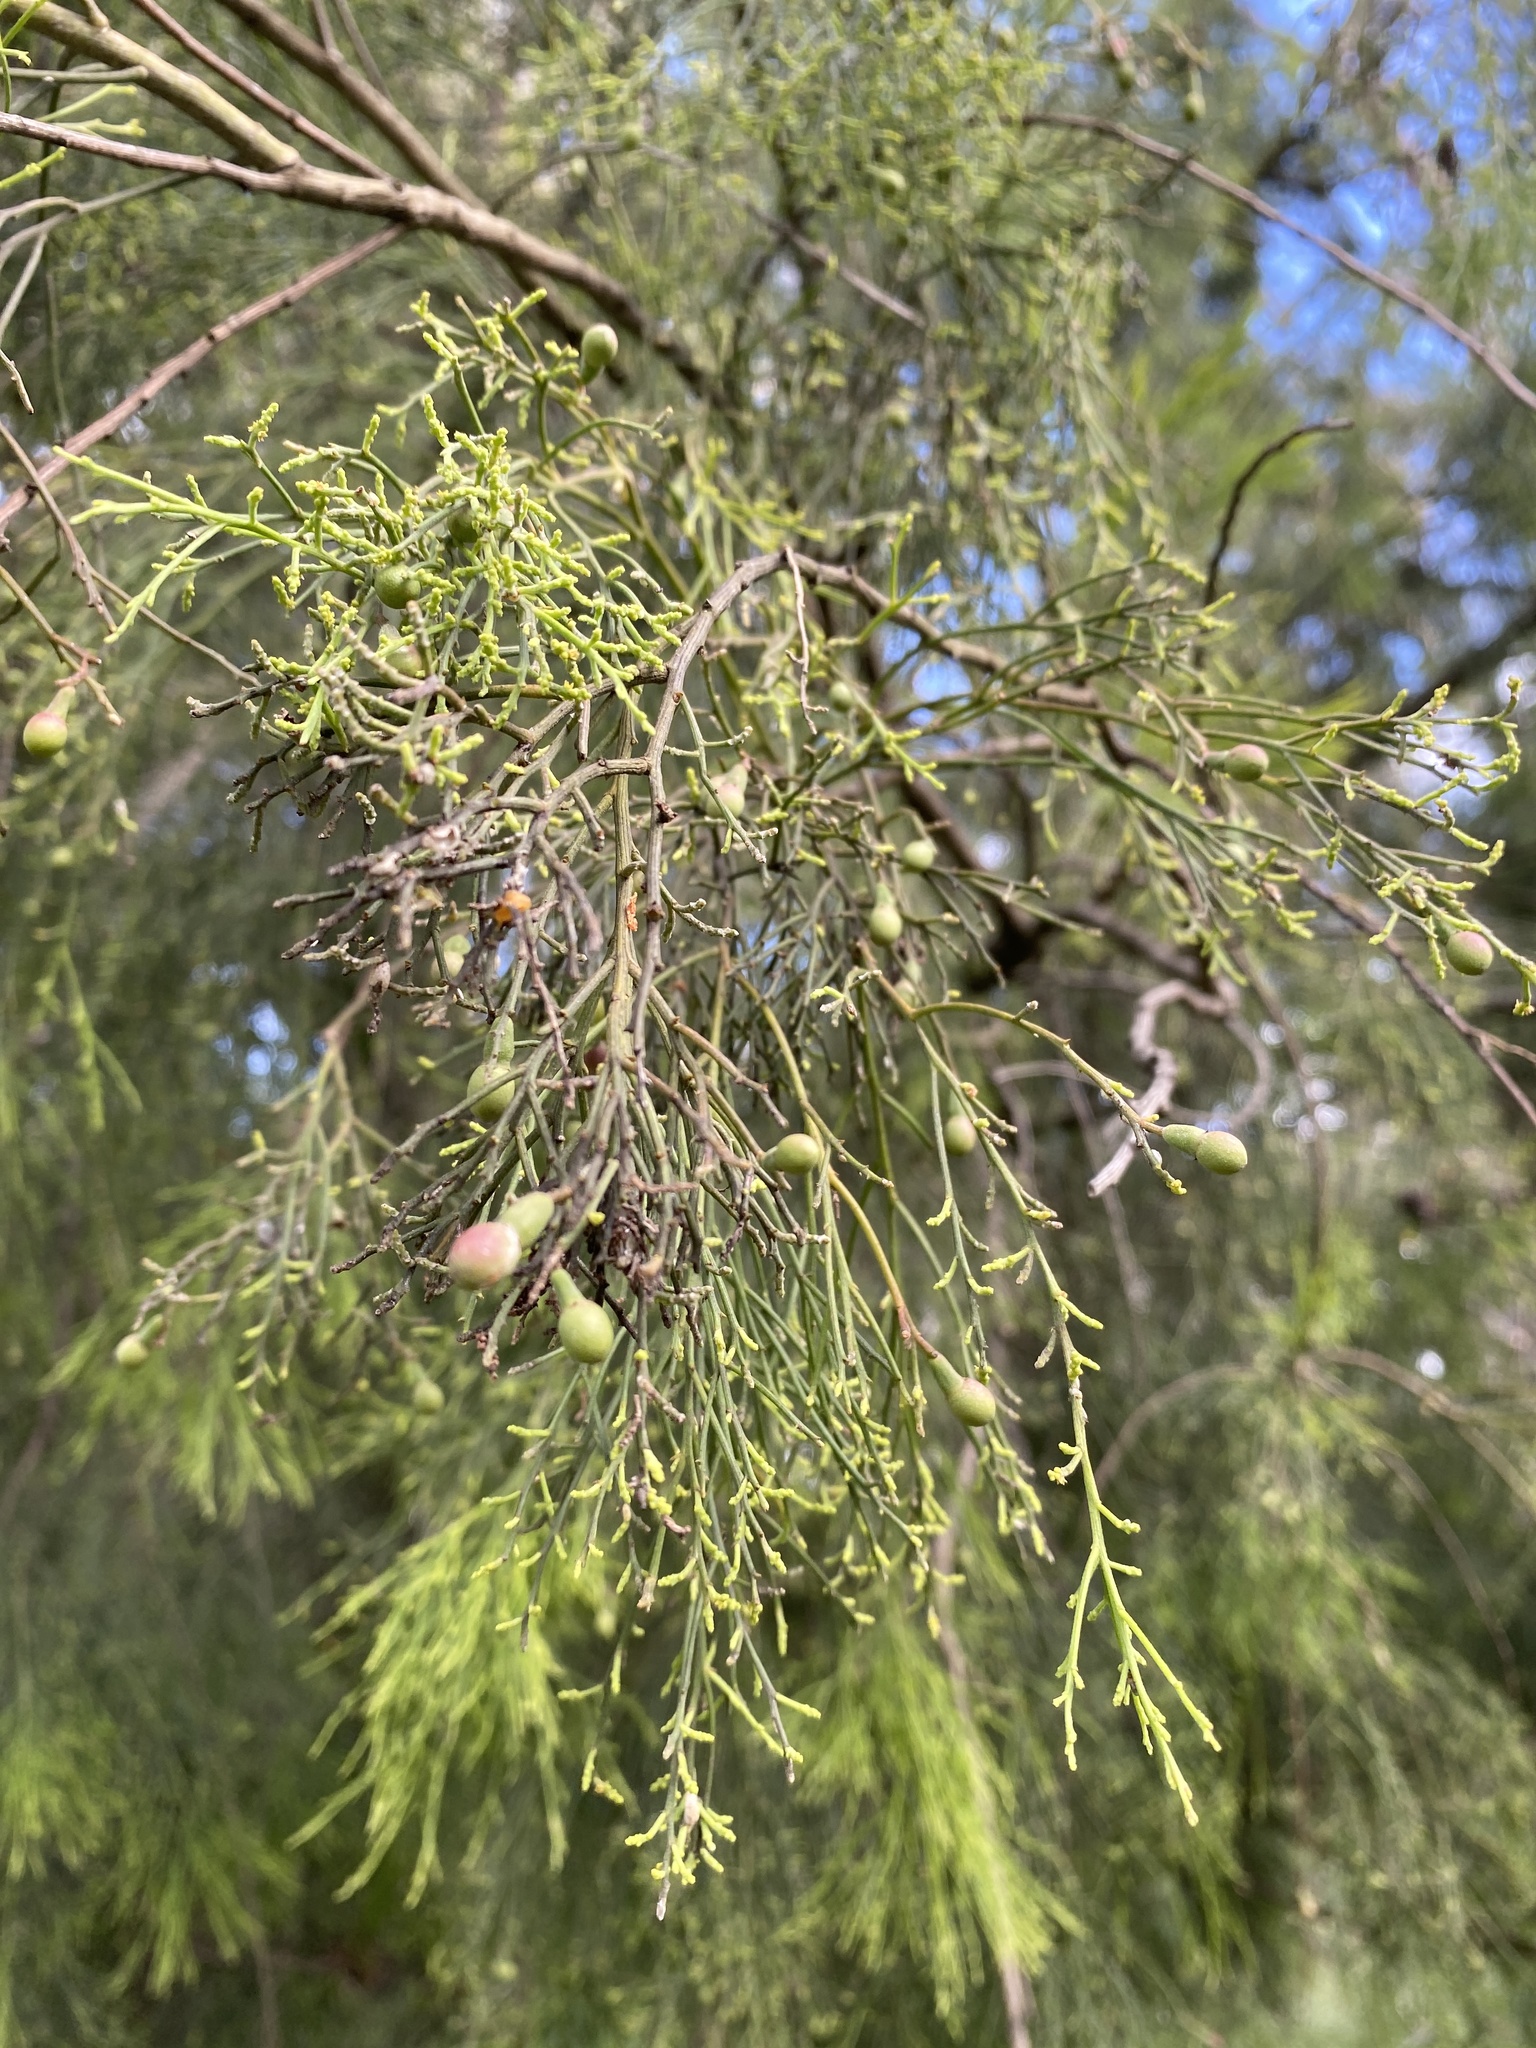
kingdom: Plantae
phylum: Tracheophyta
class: Magnoliopsida
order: Santalales
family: Santalaceae
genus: Exocarpos
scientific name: Exocarpos cupressiformis
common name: Cherry ballart
